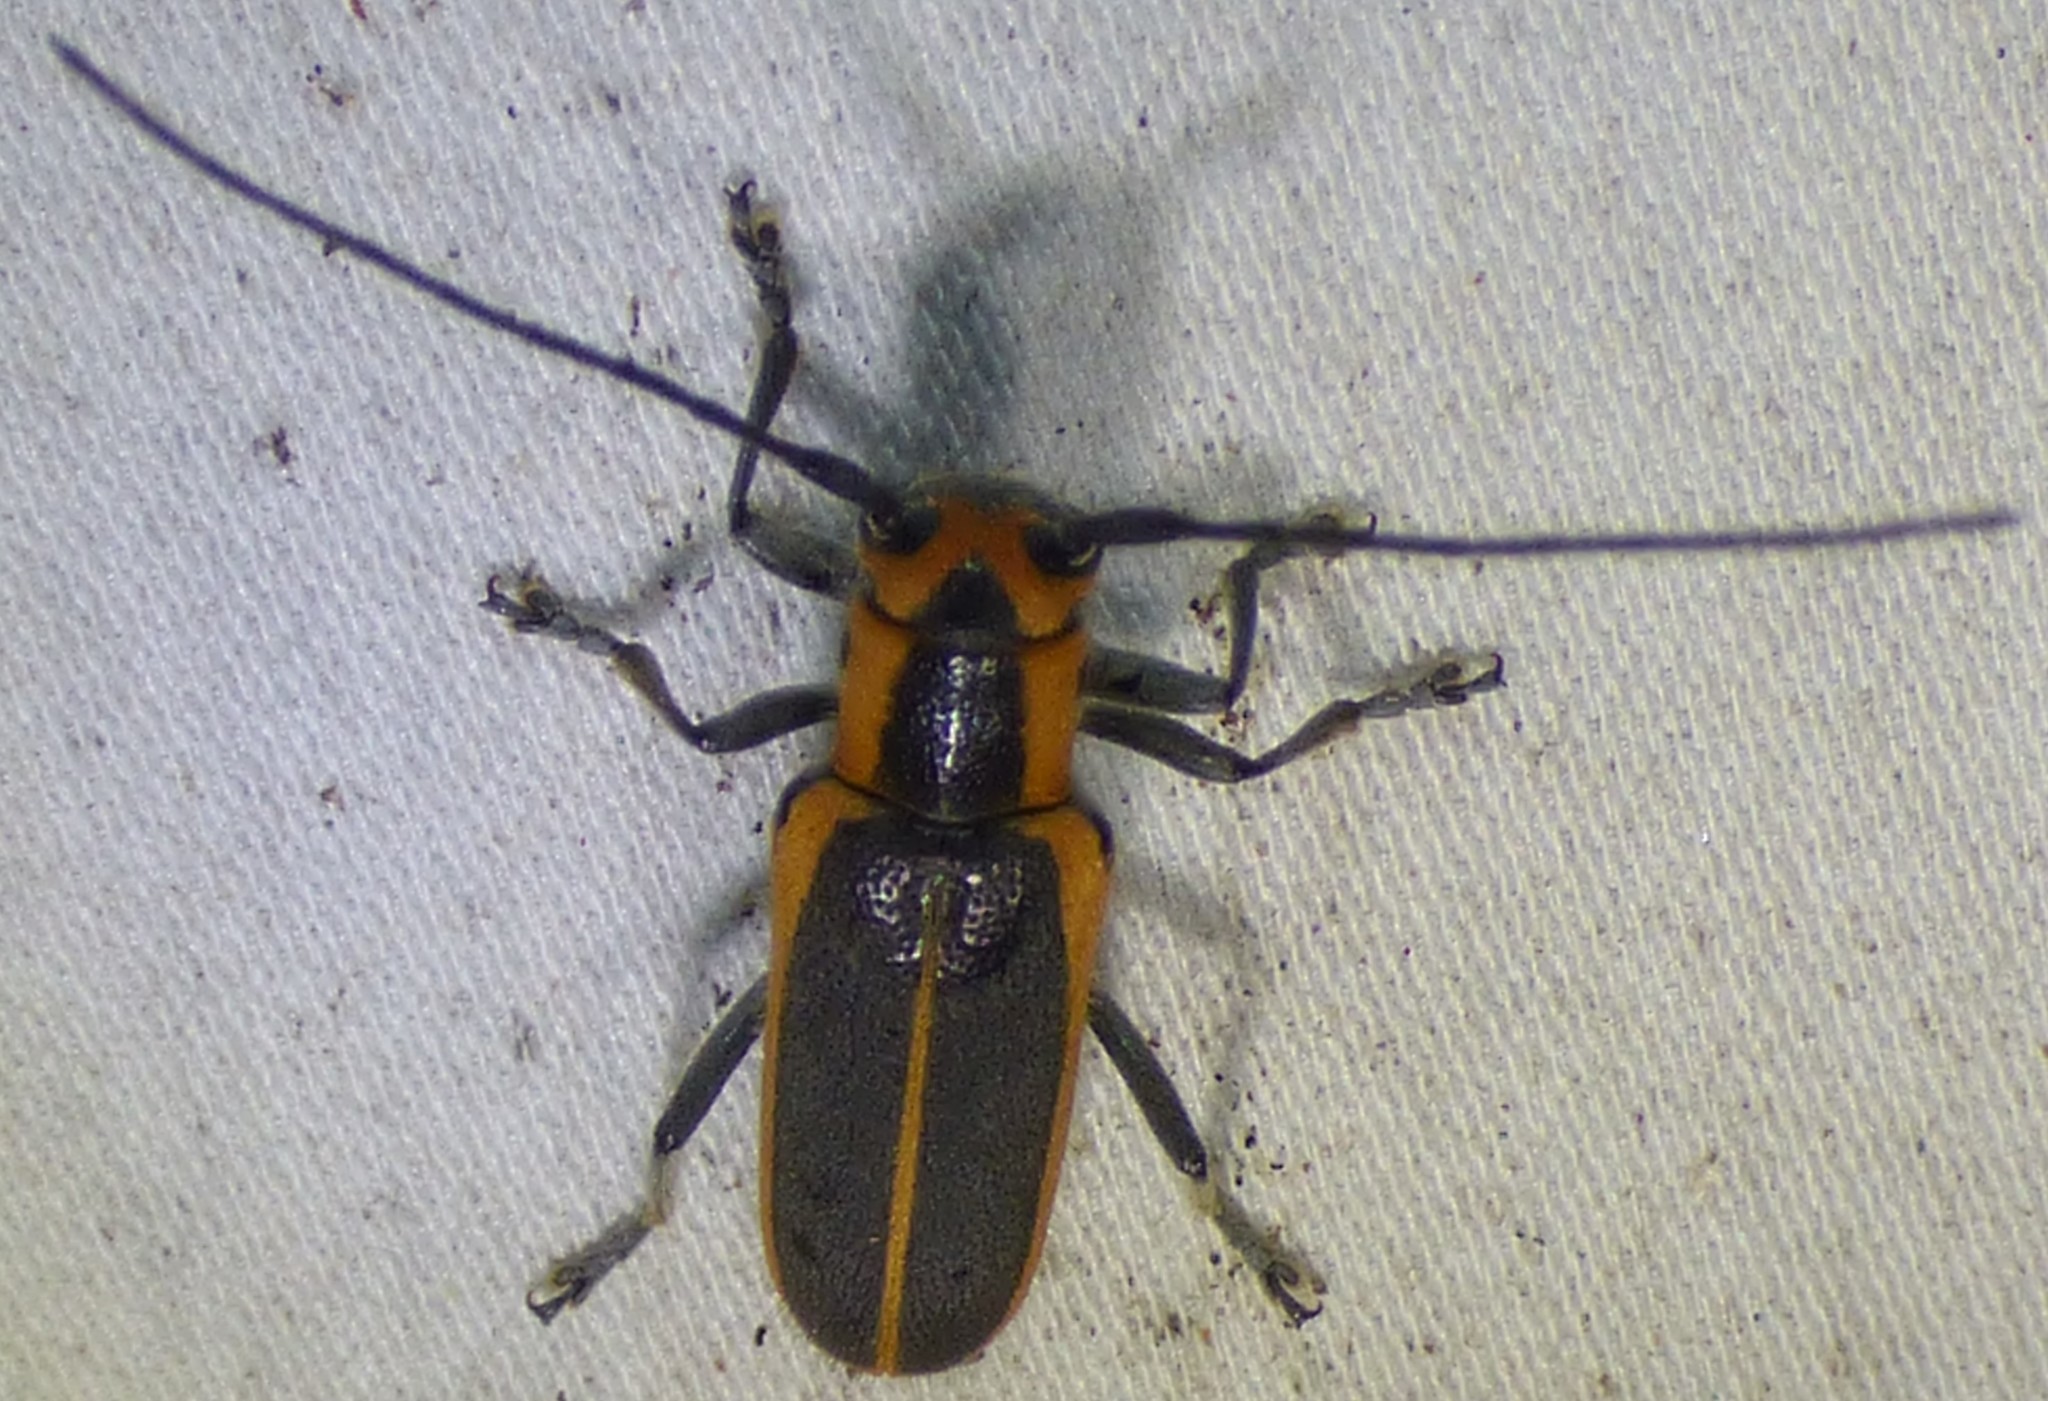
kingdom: Animalia
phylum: Arthropoda
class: Insecta
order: Coleoptera
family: Cerambycidae
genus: Saperda
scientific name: Saperda lateralis
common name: Red-edged saperda
